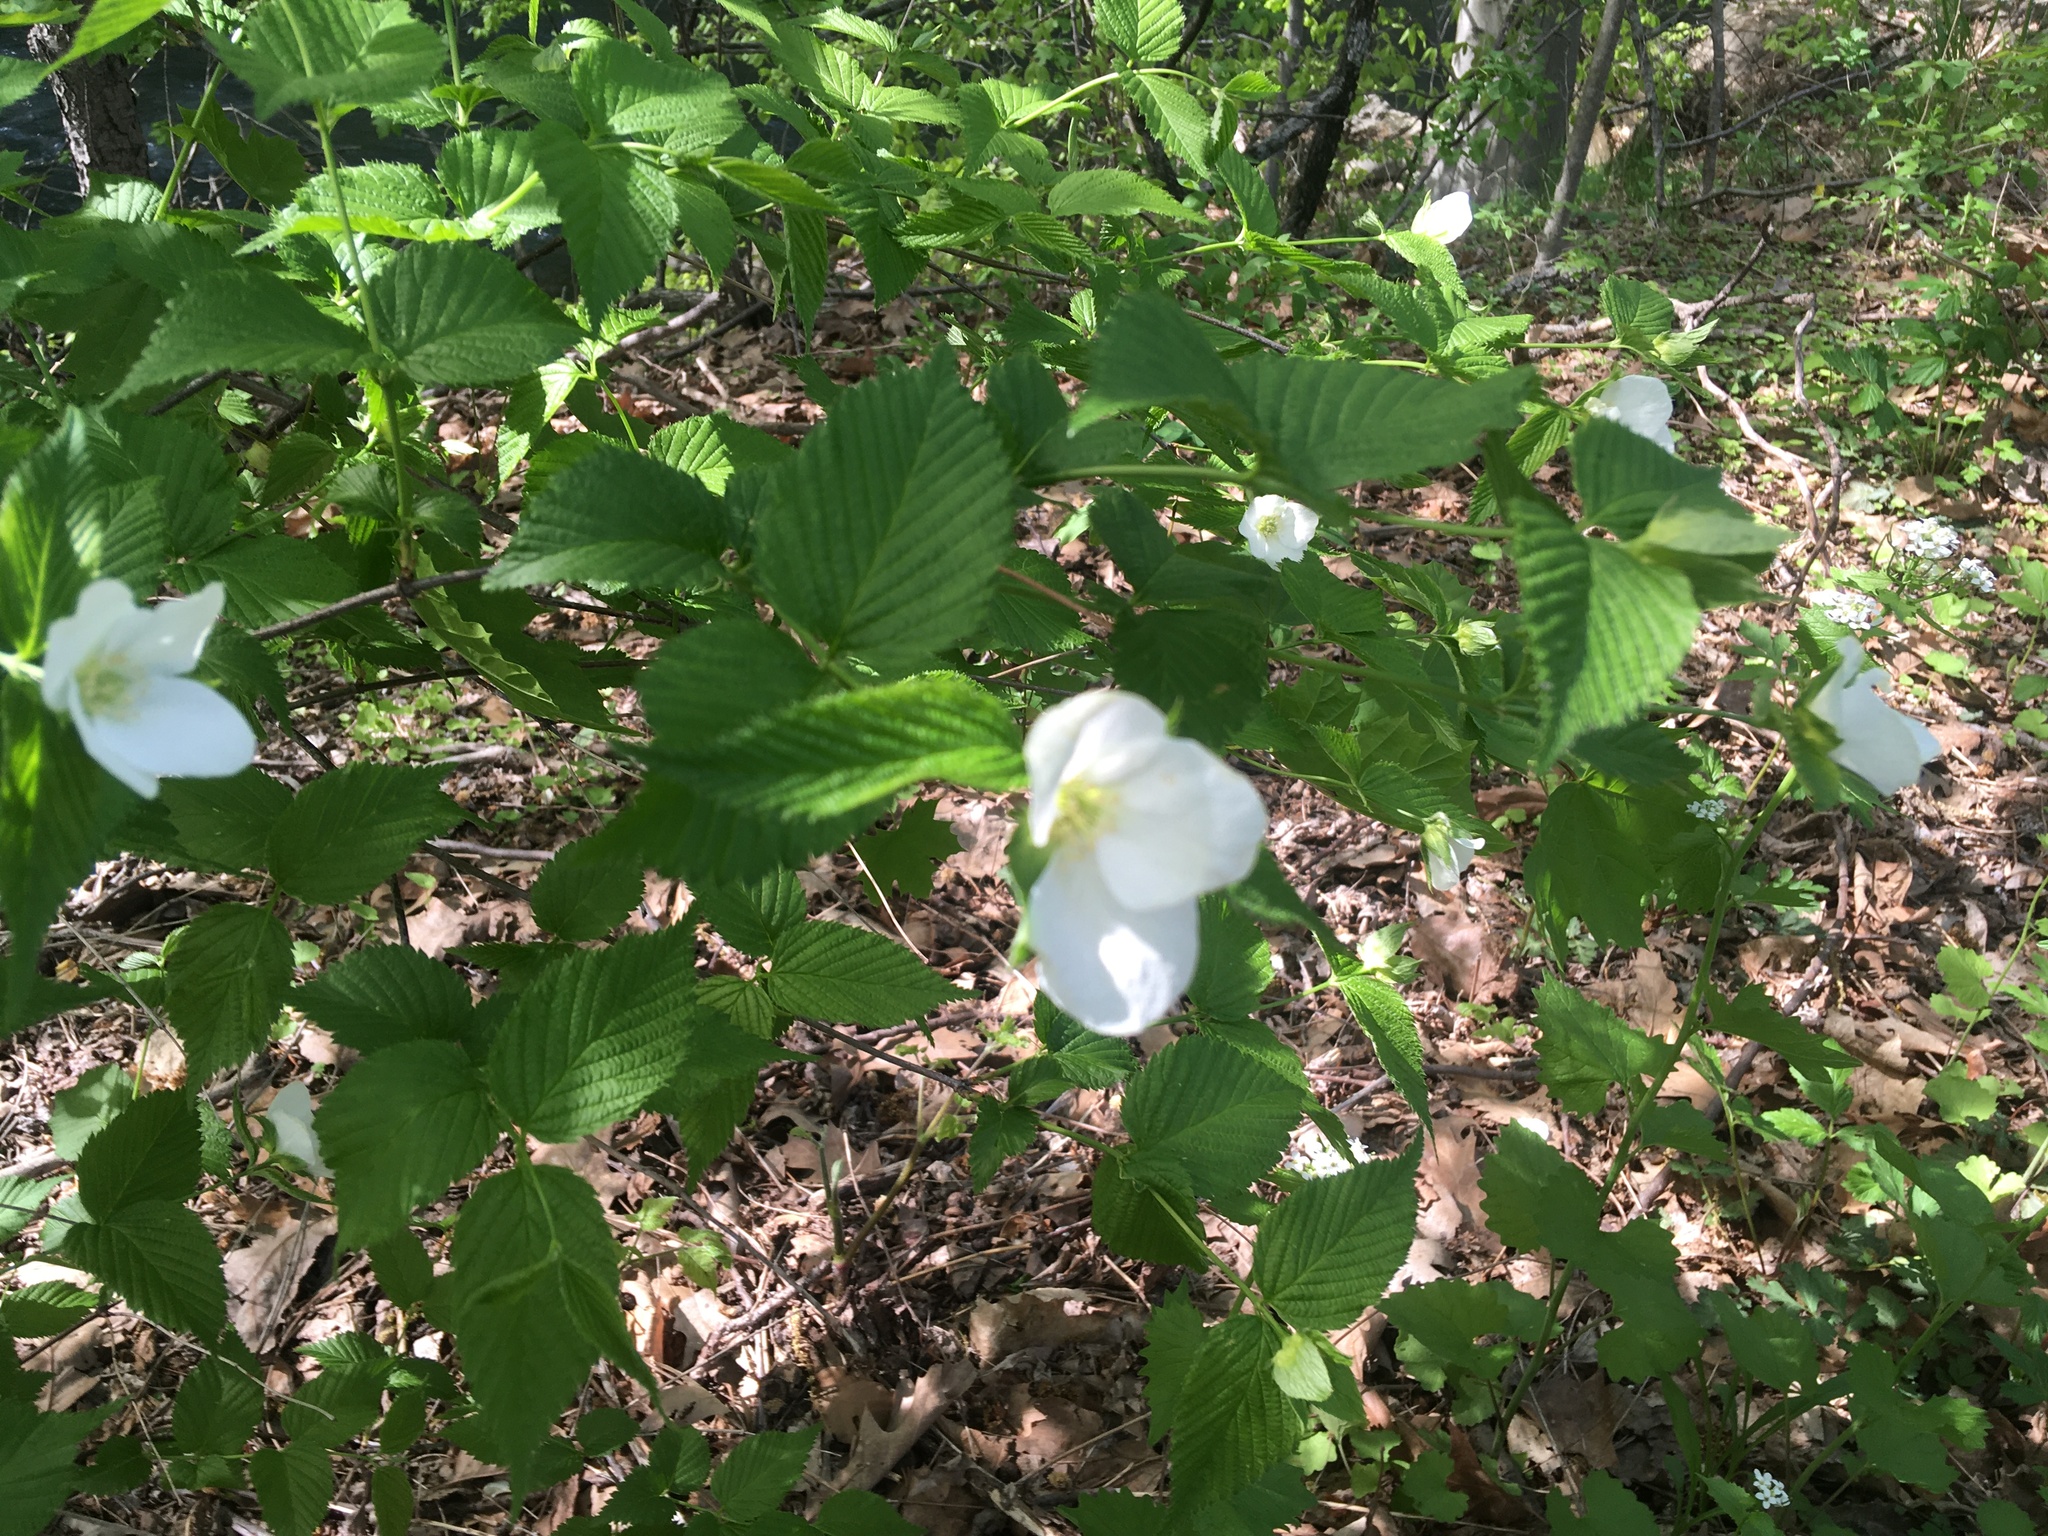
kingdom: Plantae
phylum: Tracheophyta
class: Magnoliopsida
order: Rosales
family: Rosaceae
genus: Rhodotypos
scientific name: Rhodotypos scandens
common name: Jetbead
